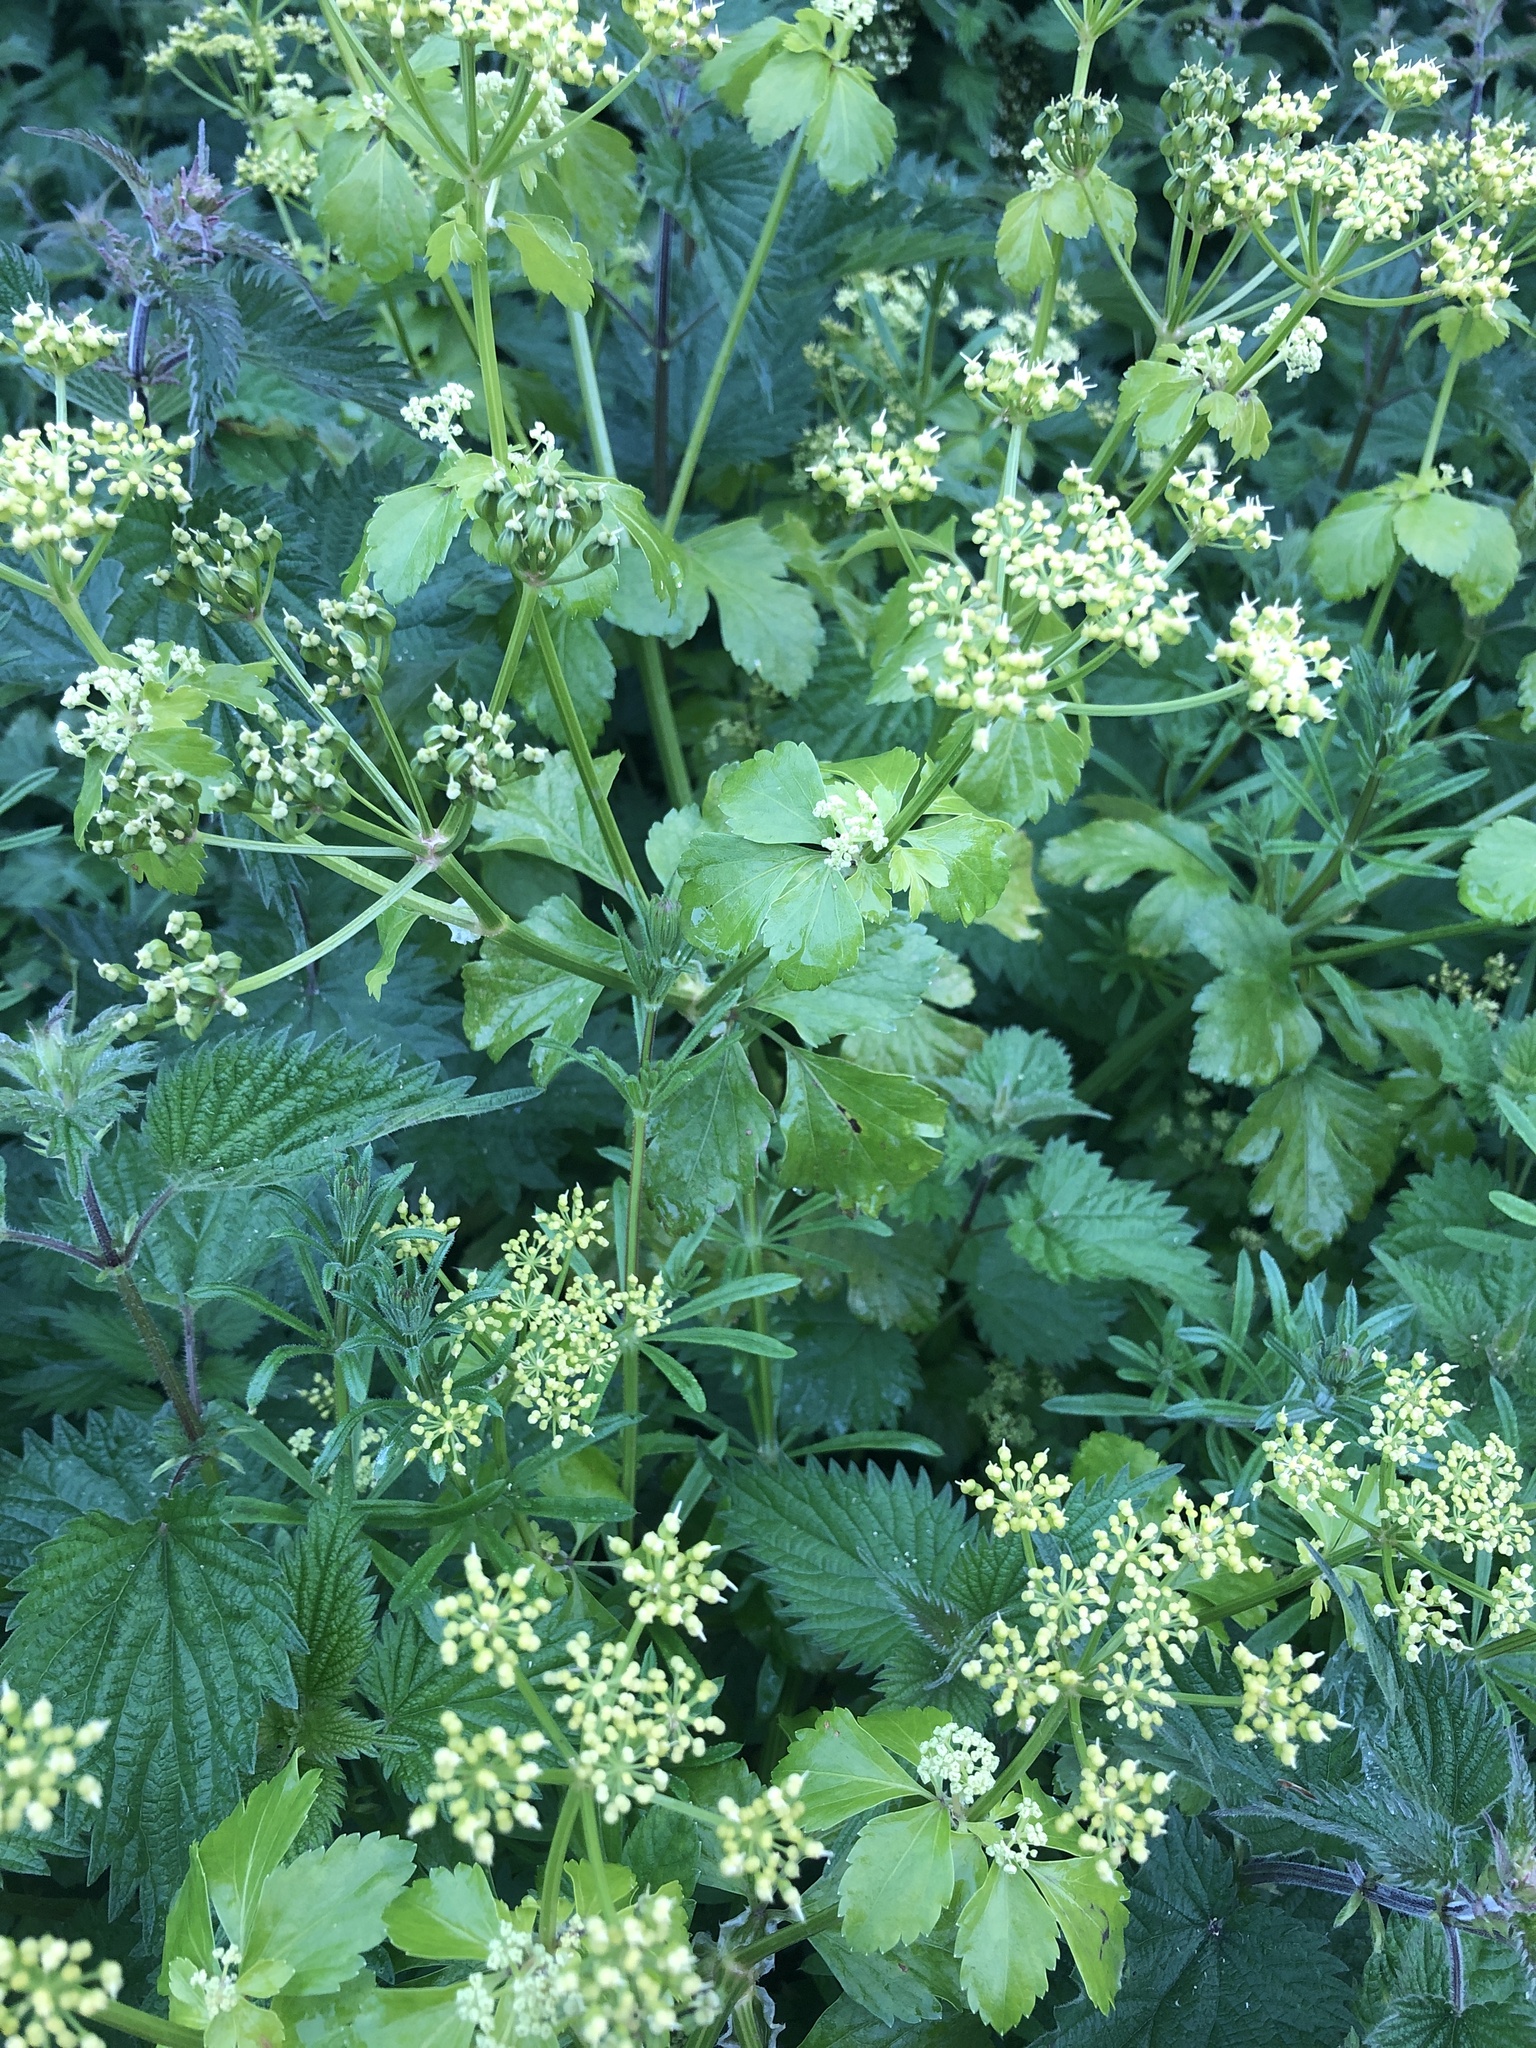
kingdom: Plantae
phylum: Tracheophyta
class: Magnoliopsida
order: Apiales
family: Apiaceae
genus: Smyrnium
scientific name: Smyrnium olusatrum
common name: Alexanders
